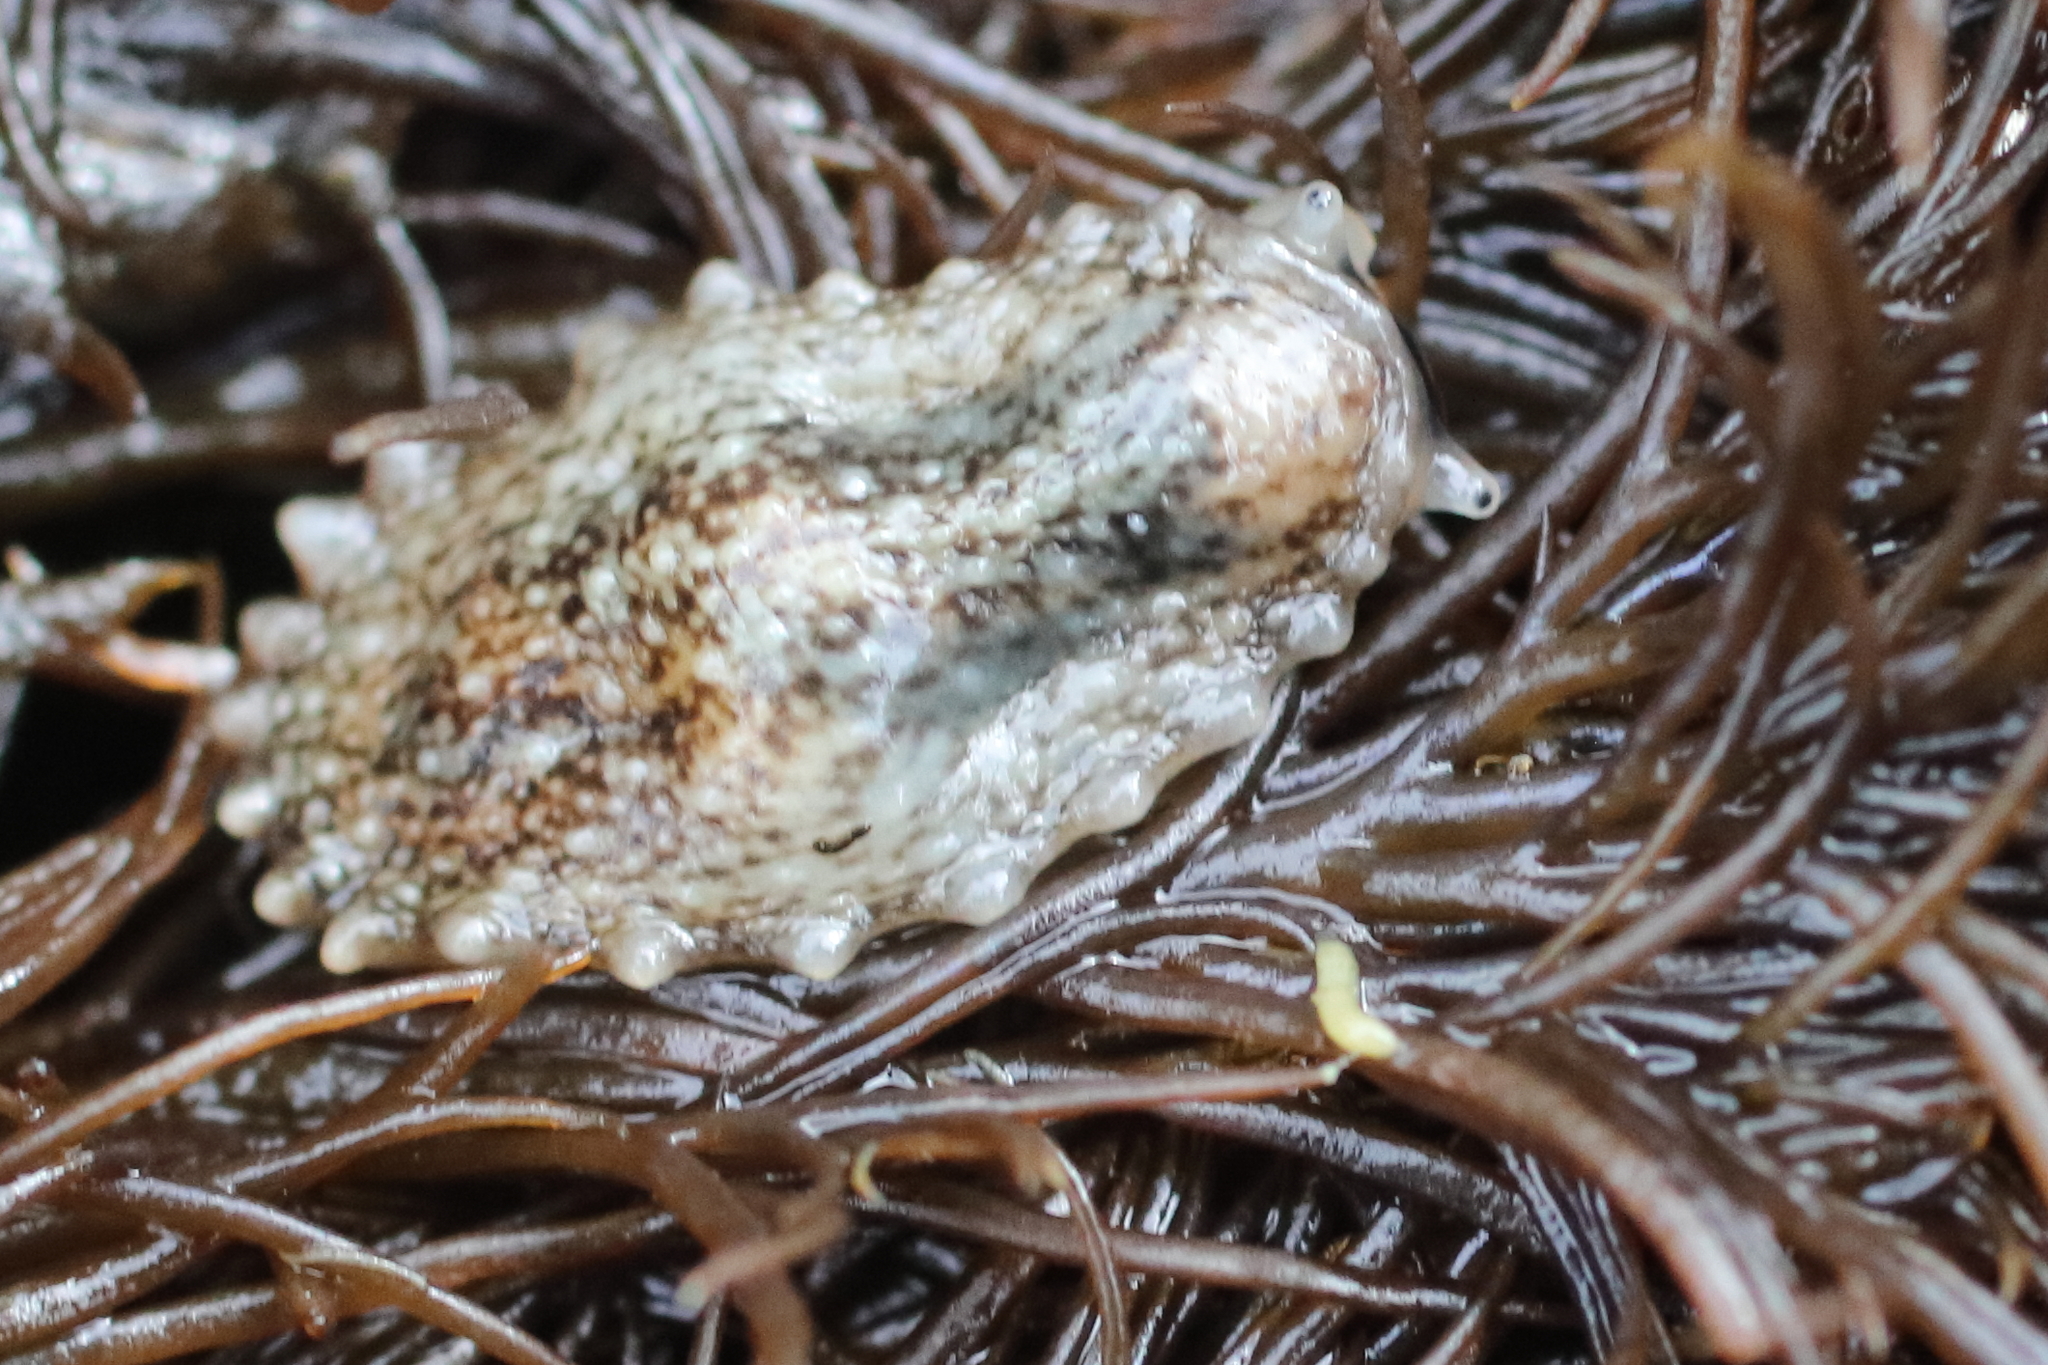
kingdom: Animalia
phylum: Mollusca
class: Gastropoda
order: Systellommatophora
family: Onchidiidae
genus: Onchidella
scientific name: Onchidella carpenteri
